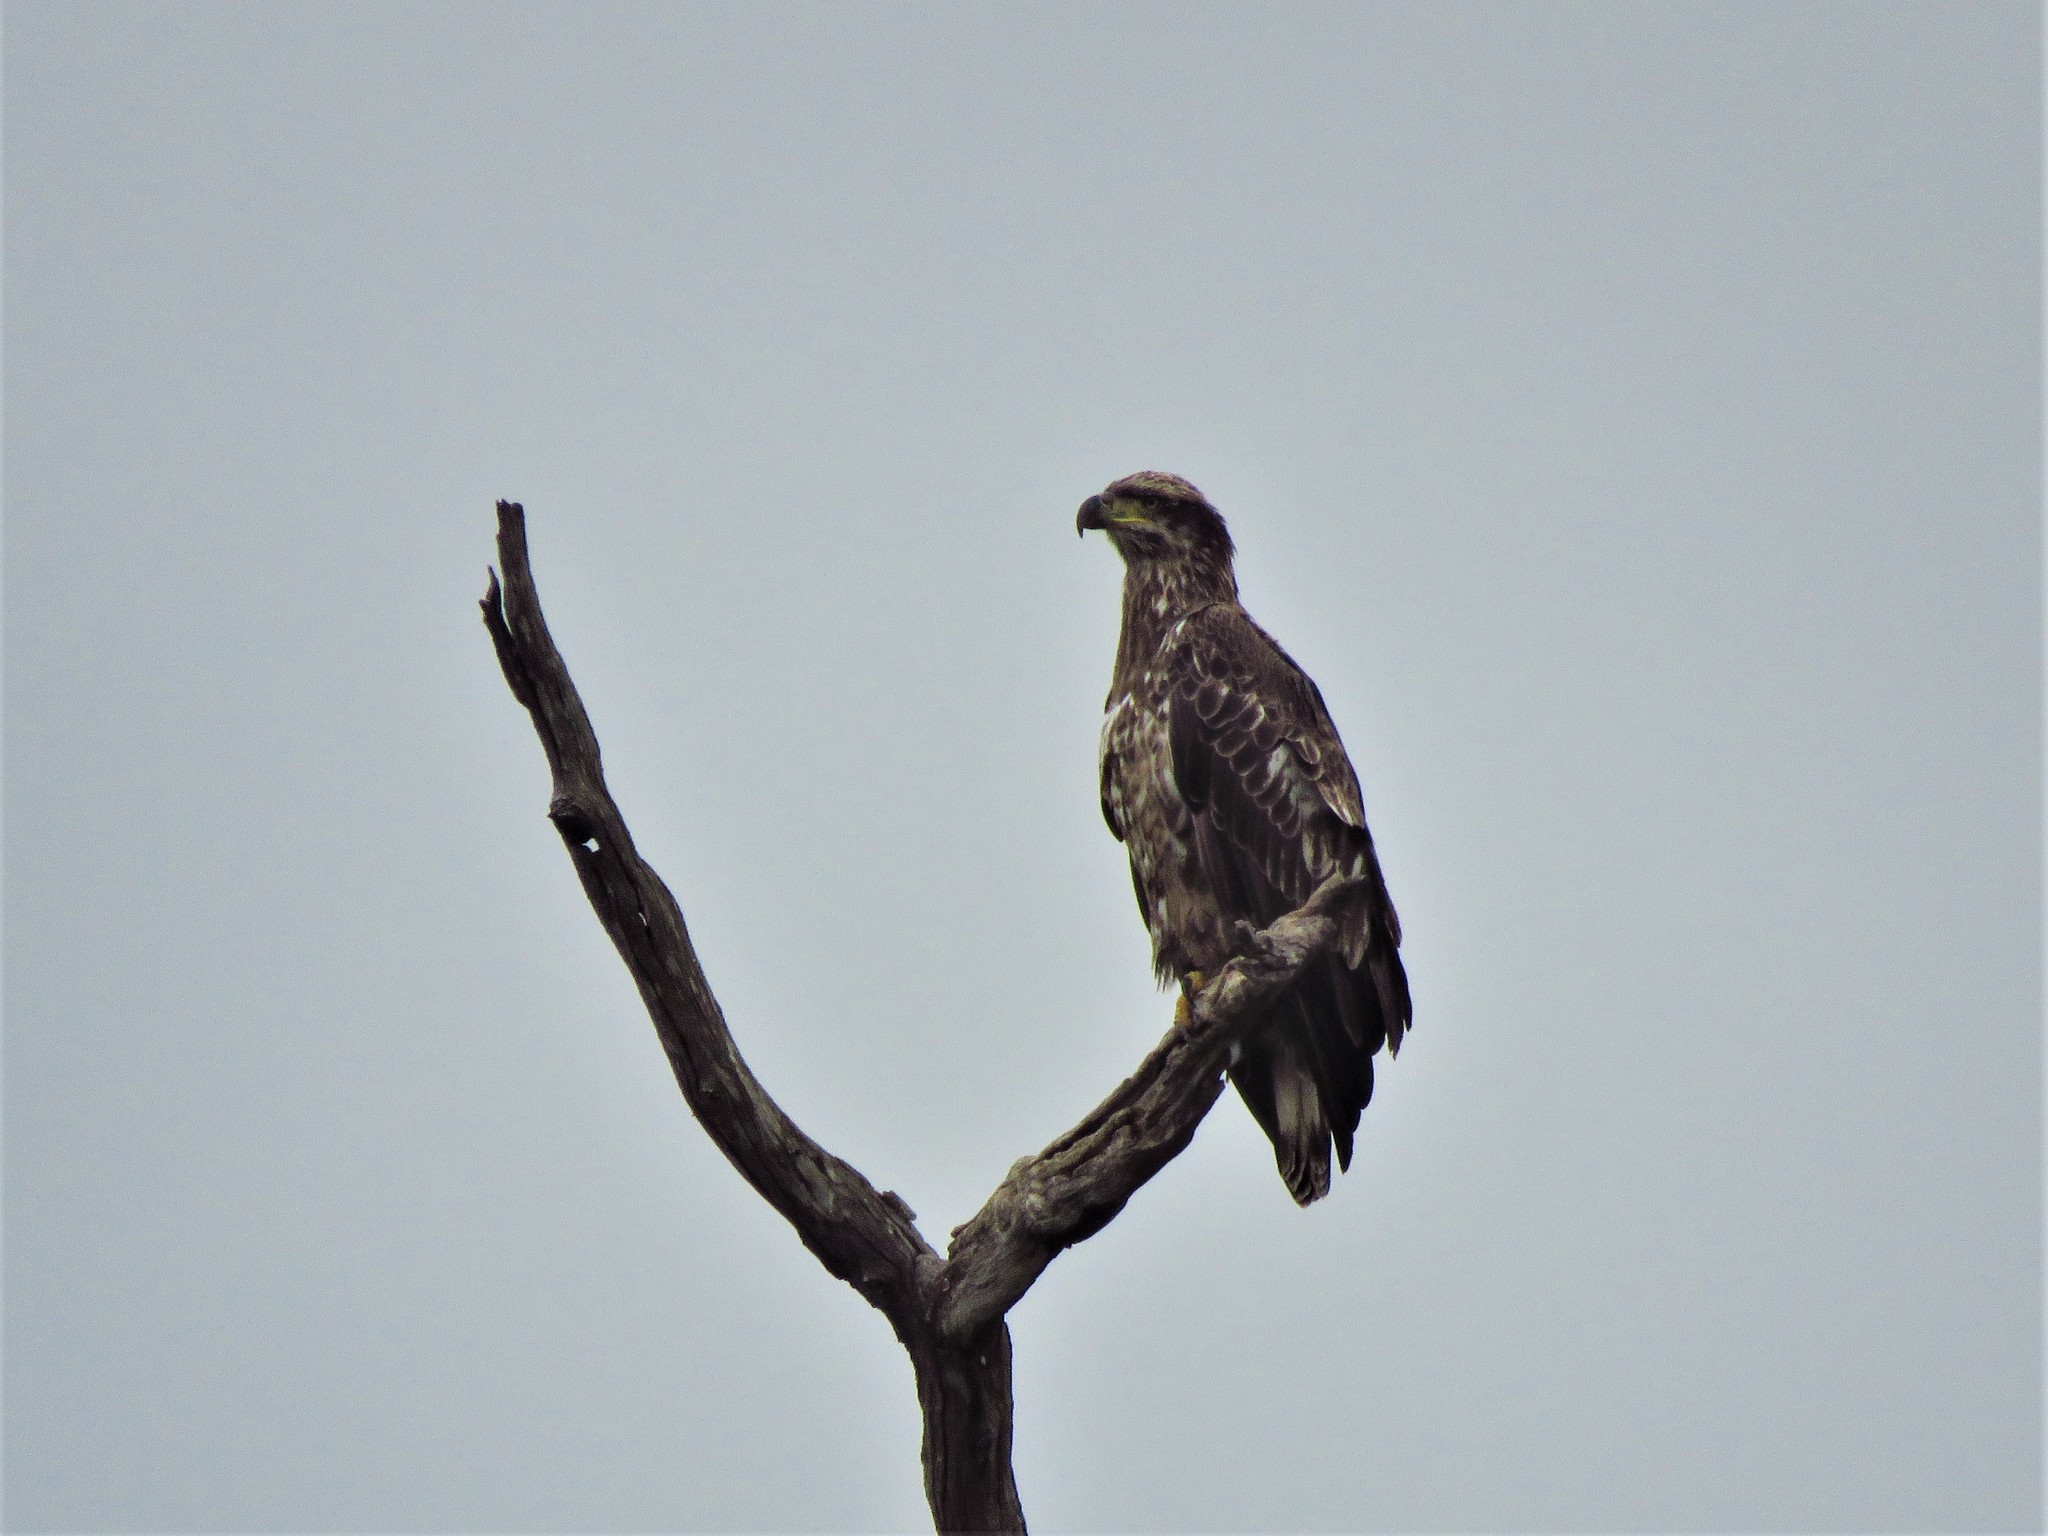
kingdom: Animalia
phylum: Chordata
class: Aves
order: Accipitriformes
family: Accipitridae
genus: Haliaeetus
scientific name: Haliaeetus leucocephalus
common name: Bald eagle
